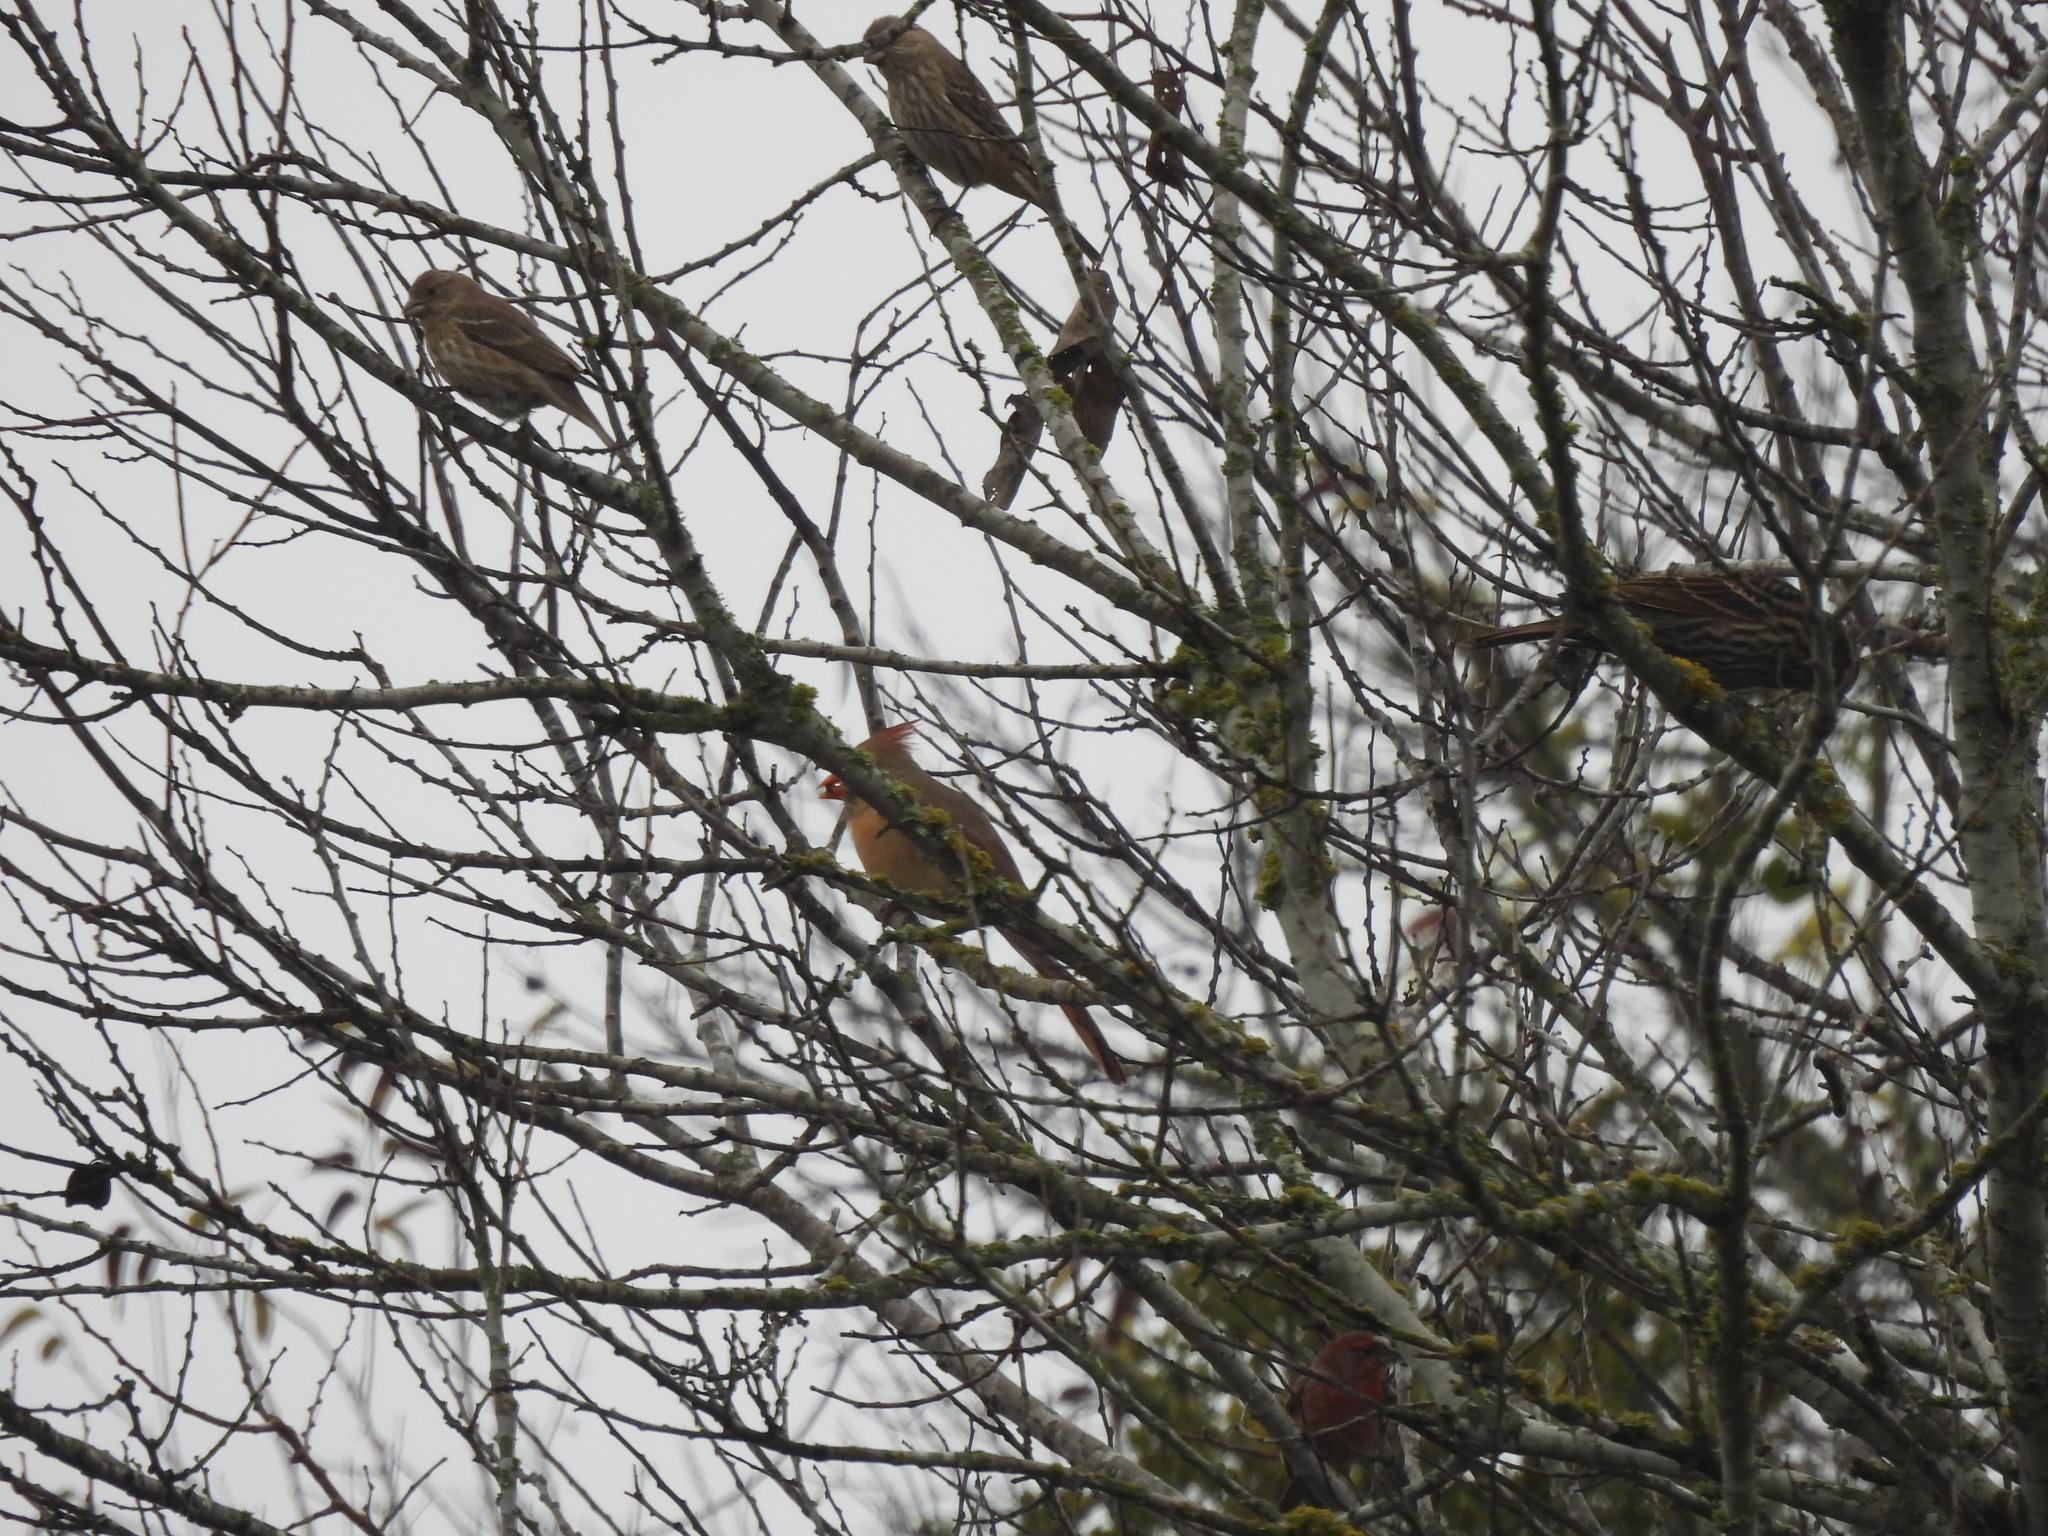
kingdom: Animalia
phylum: Chordata
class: Aves
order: Passeriformes
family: Cardinalidae
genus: Cardinalis
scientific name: Cardinalis cardinalis
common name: Northern cardinal
